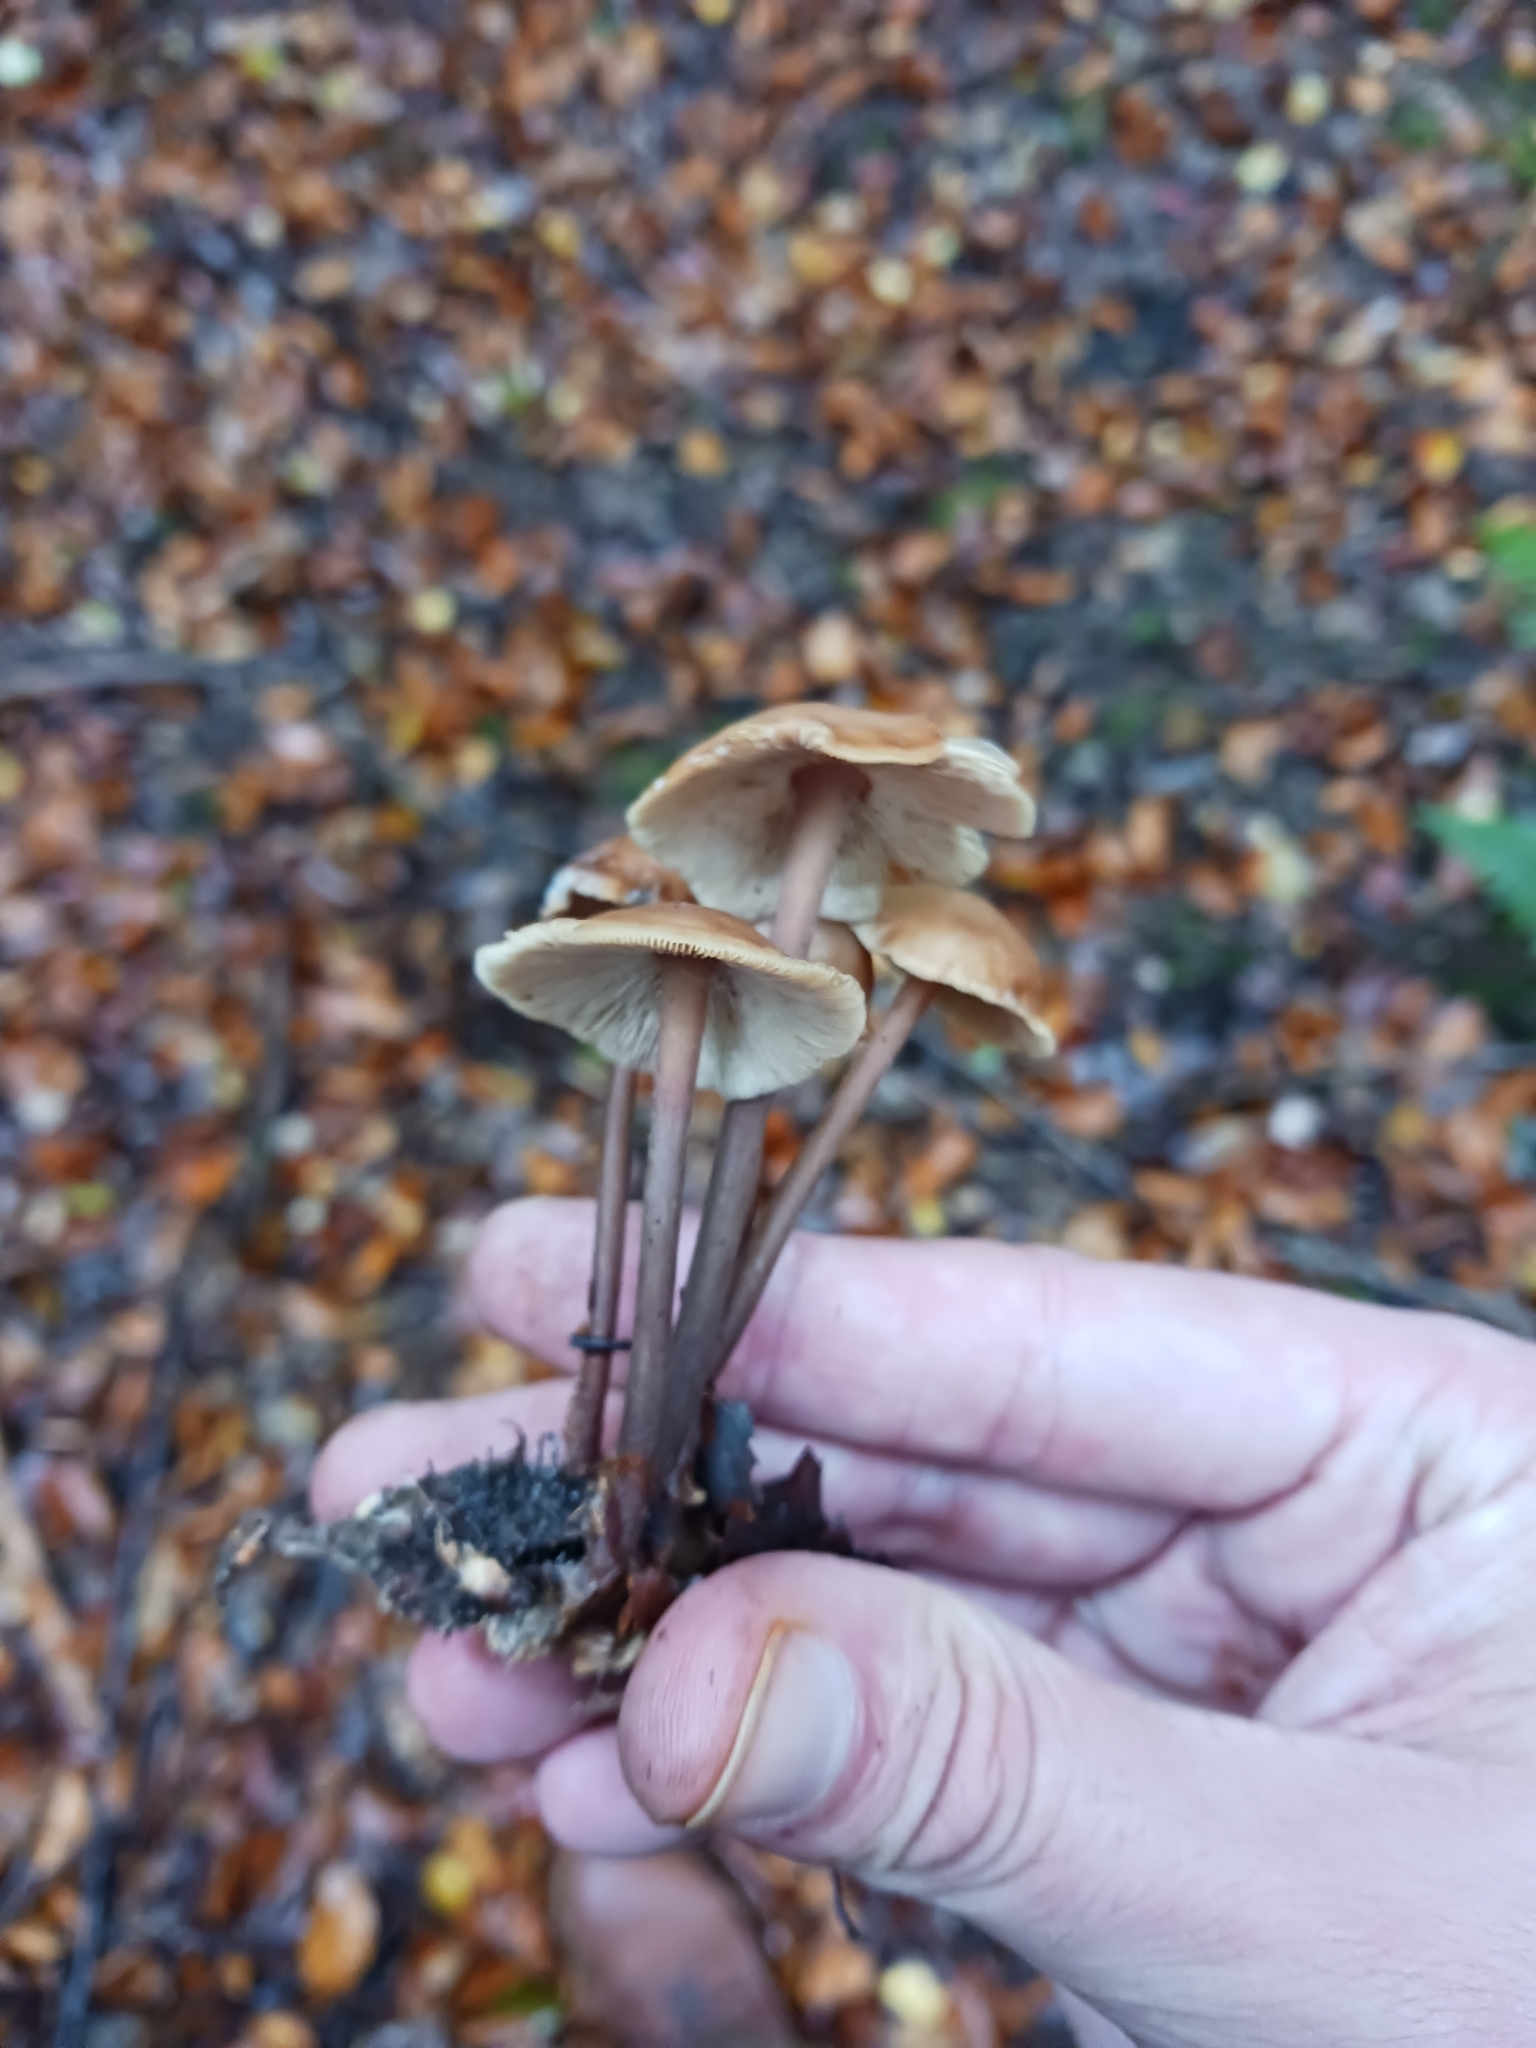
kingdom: Fungi
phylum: Basidiomycota
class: Agaricomycetes
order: Agaricales
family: Omphalotaceae
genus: Collybiopsis
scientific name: Collybiopsis confluens
